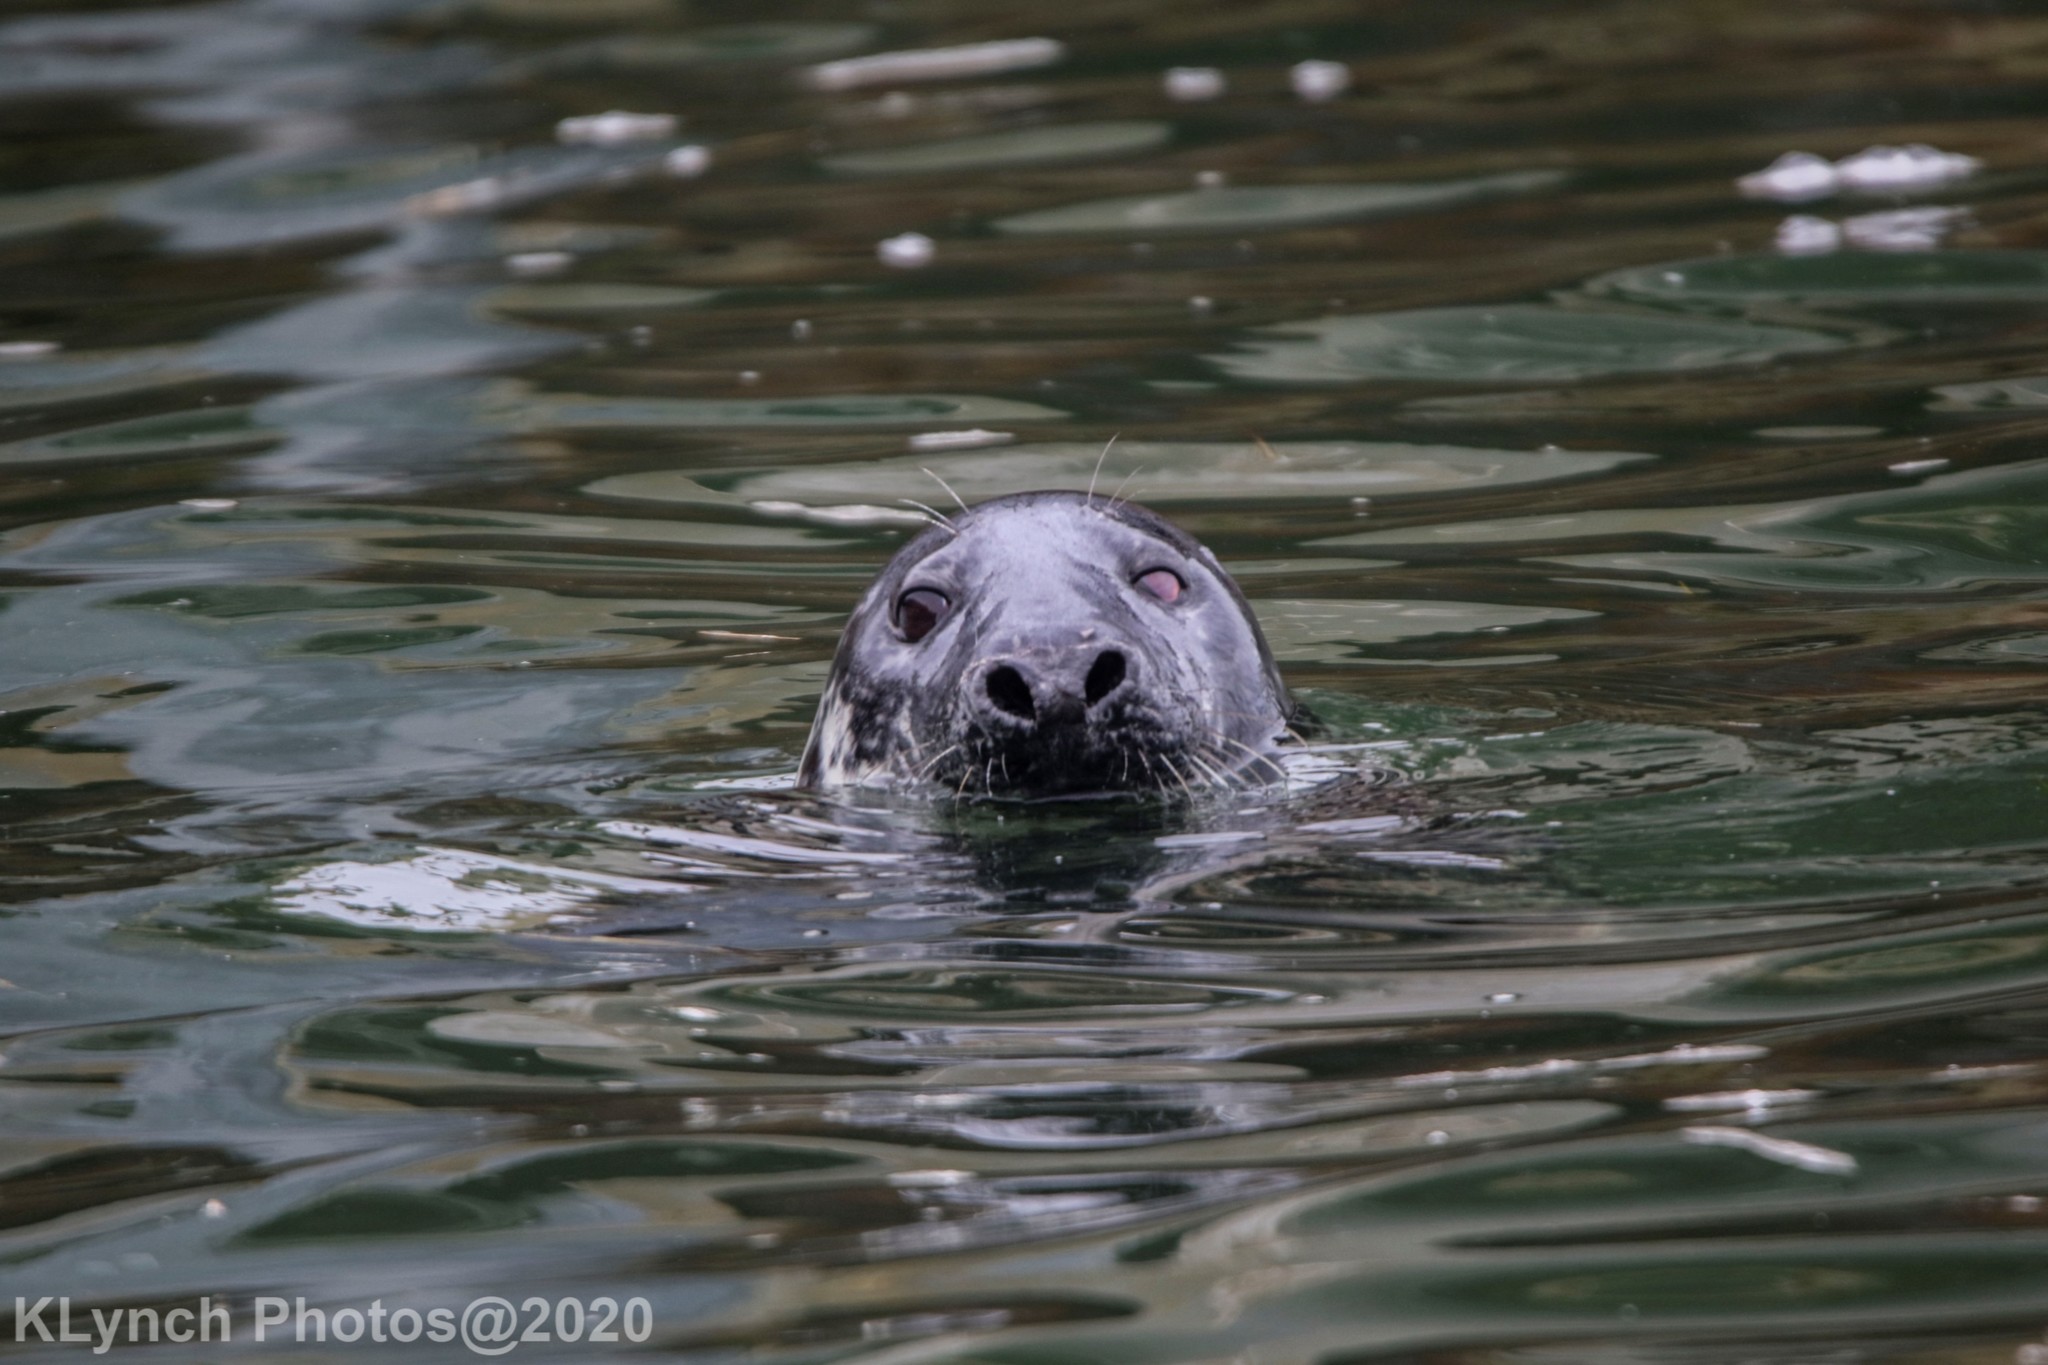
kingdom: Animalia
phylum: Chordata
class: Mammalia
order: Carnivora
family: Phocidae
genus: Halichoerus
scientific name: Halichoerus grypus
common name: Grey seal
